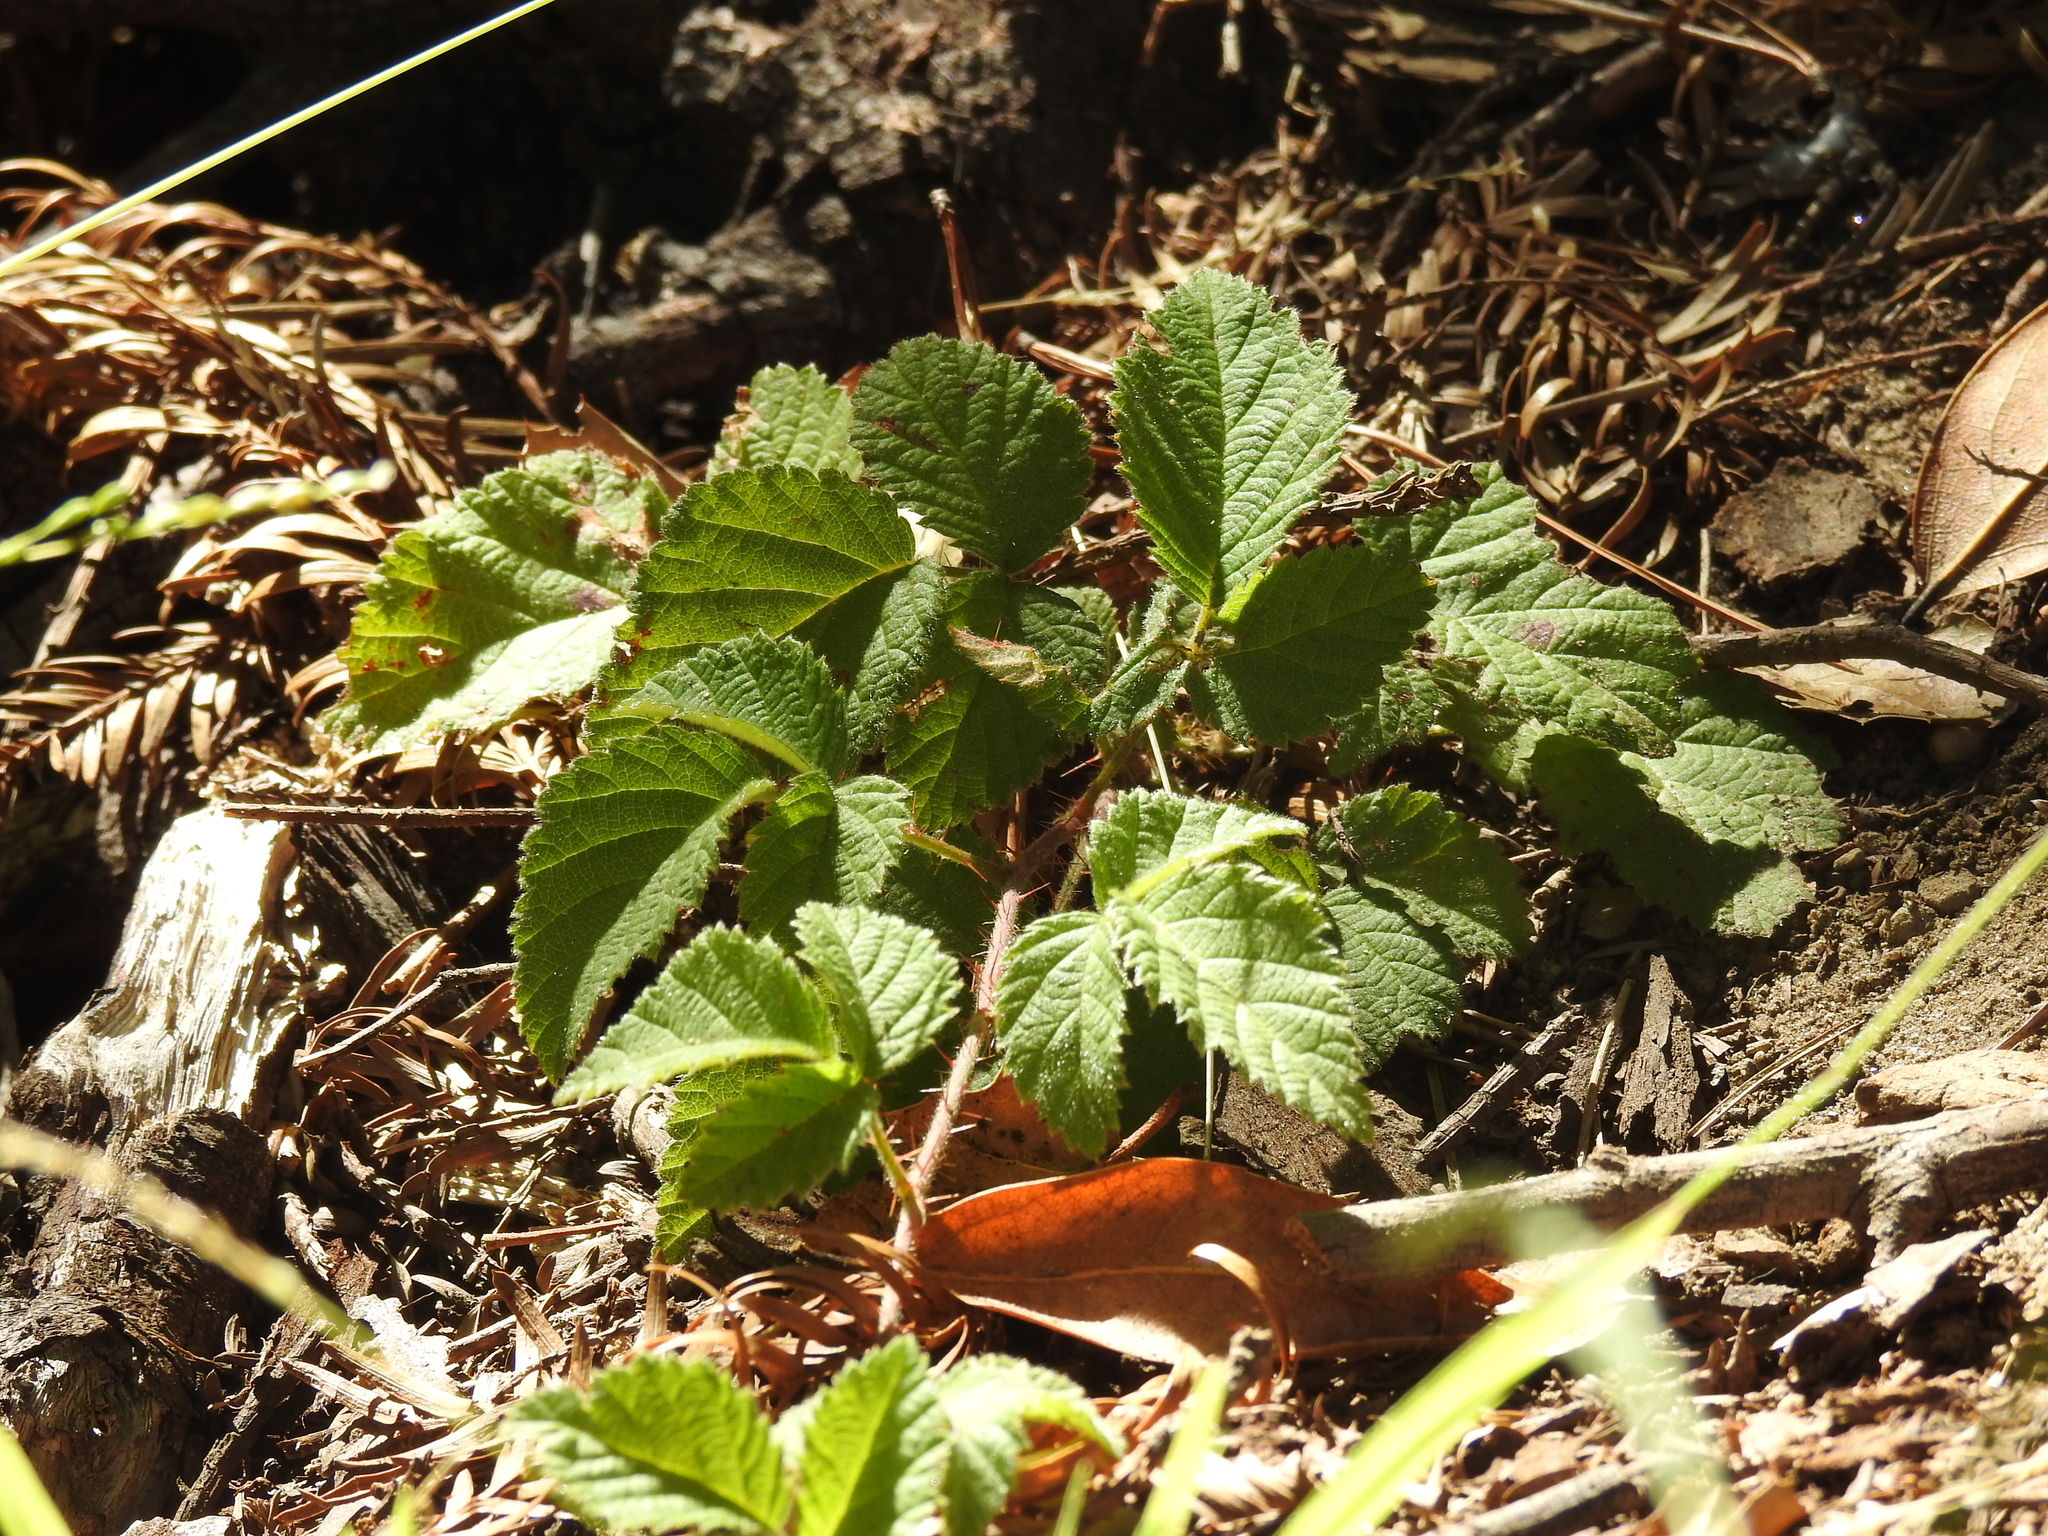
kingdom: Plantae
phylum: Tracheophyta
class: Magnoliopsida
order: Rosales
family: Rosaceae
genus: Rubus
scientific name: Rubus ursinus
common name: Pacific blackberry
